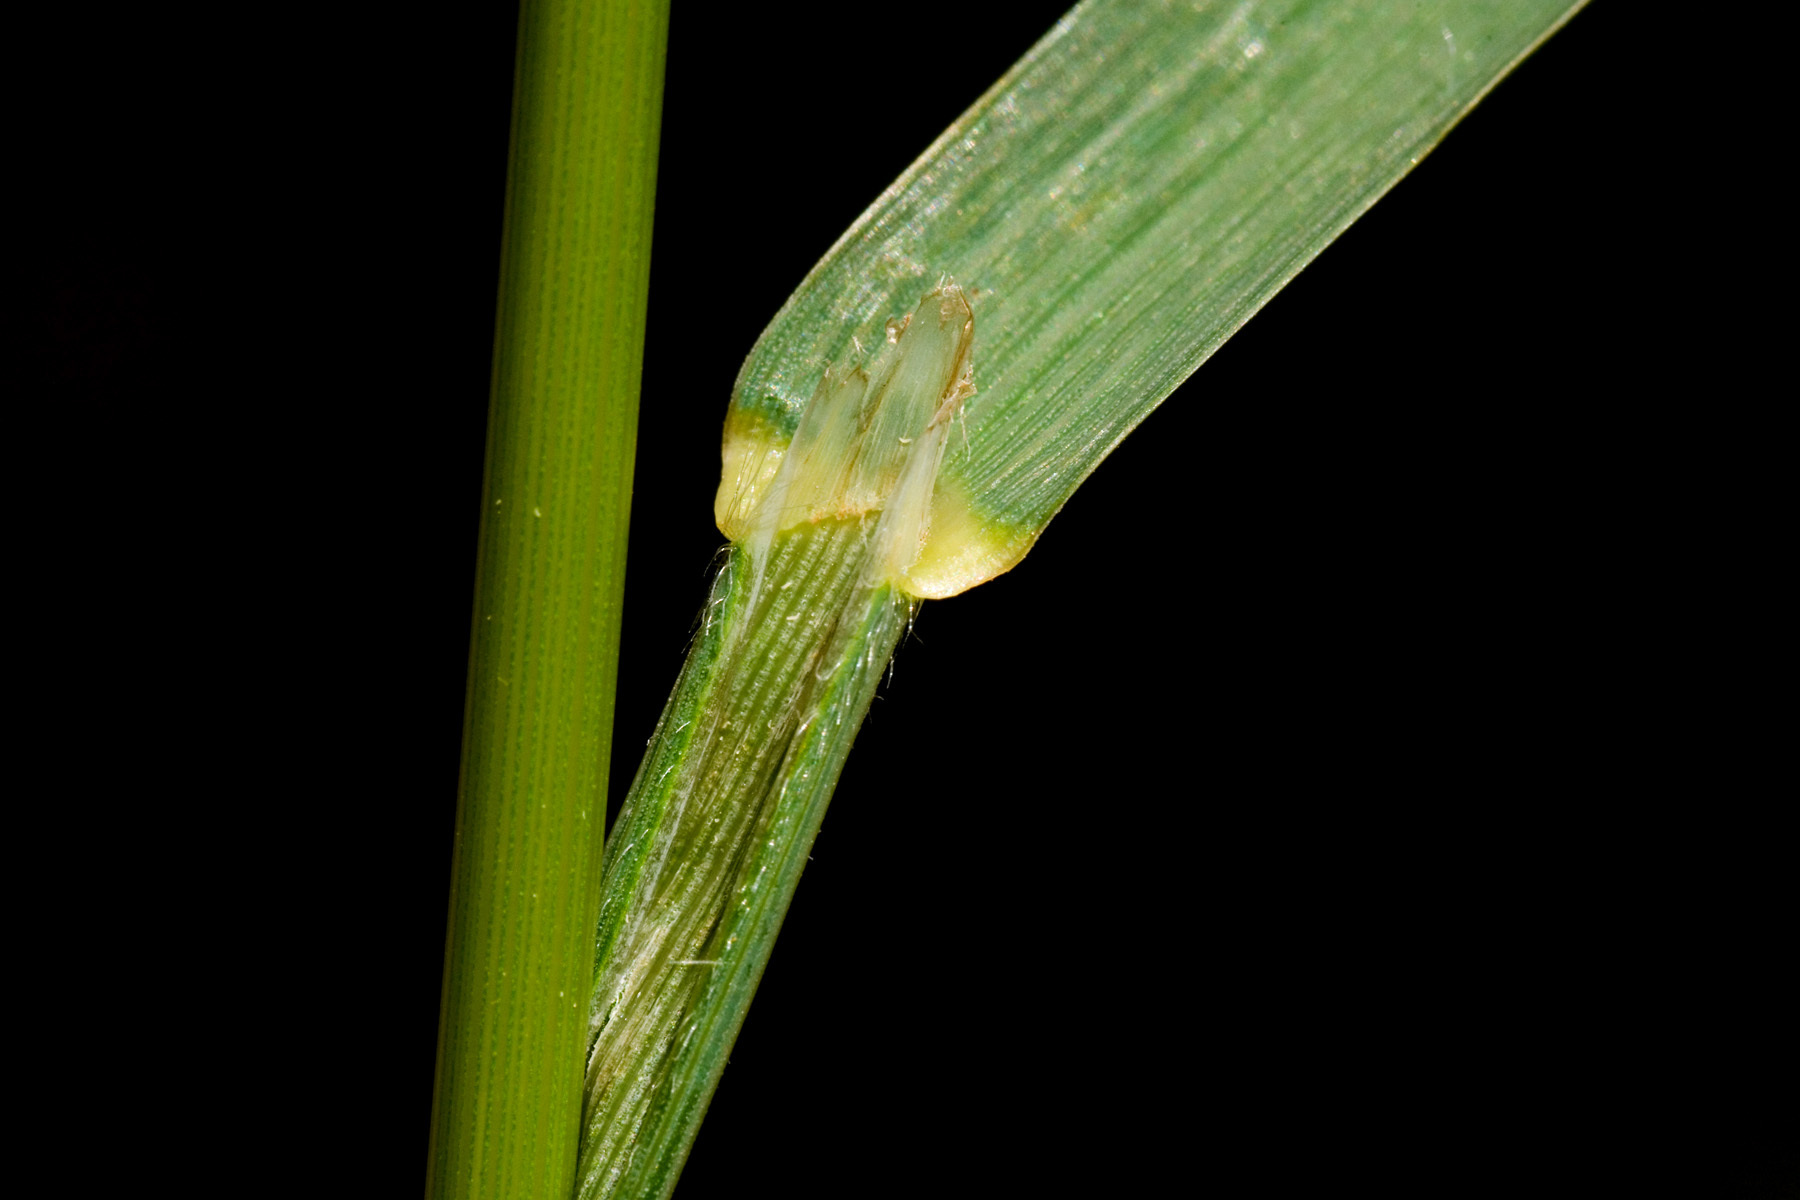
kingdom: Plantae
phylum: Tracheophyta
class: Liliopsida
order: Poales
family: Poaceae
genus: Bromus
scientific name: Bromus carinatus
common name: Mountain brome
